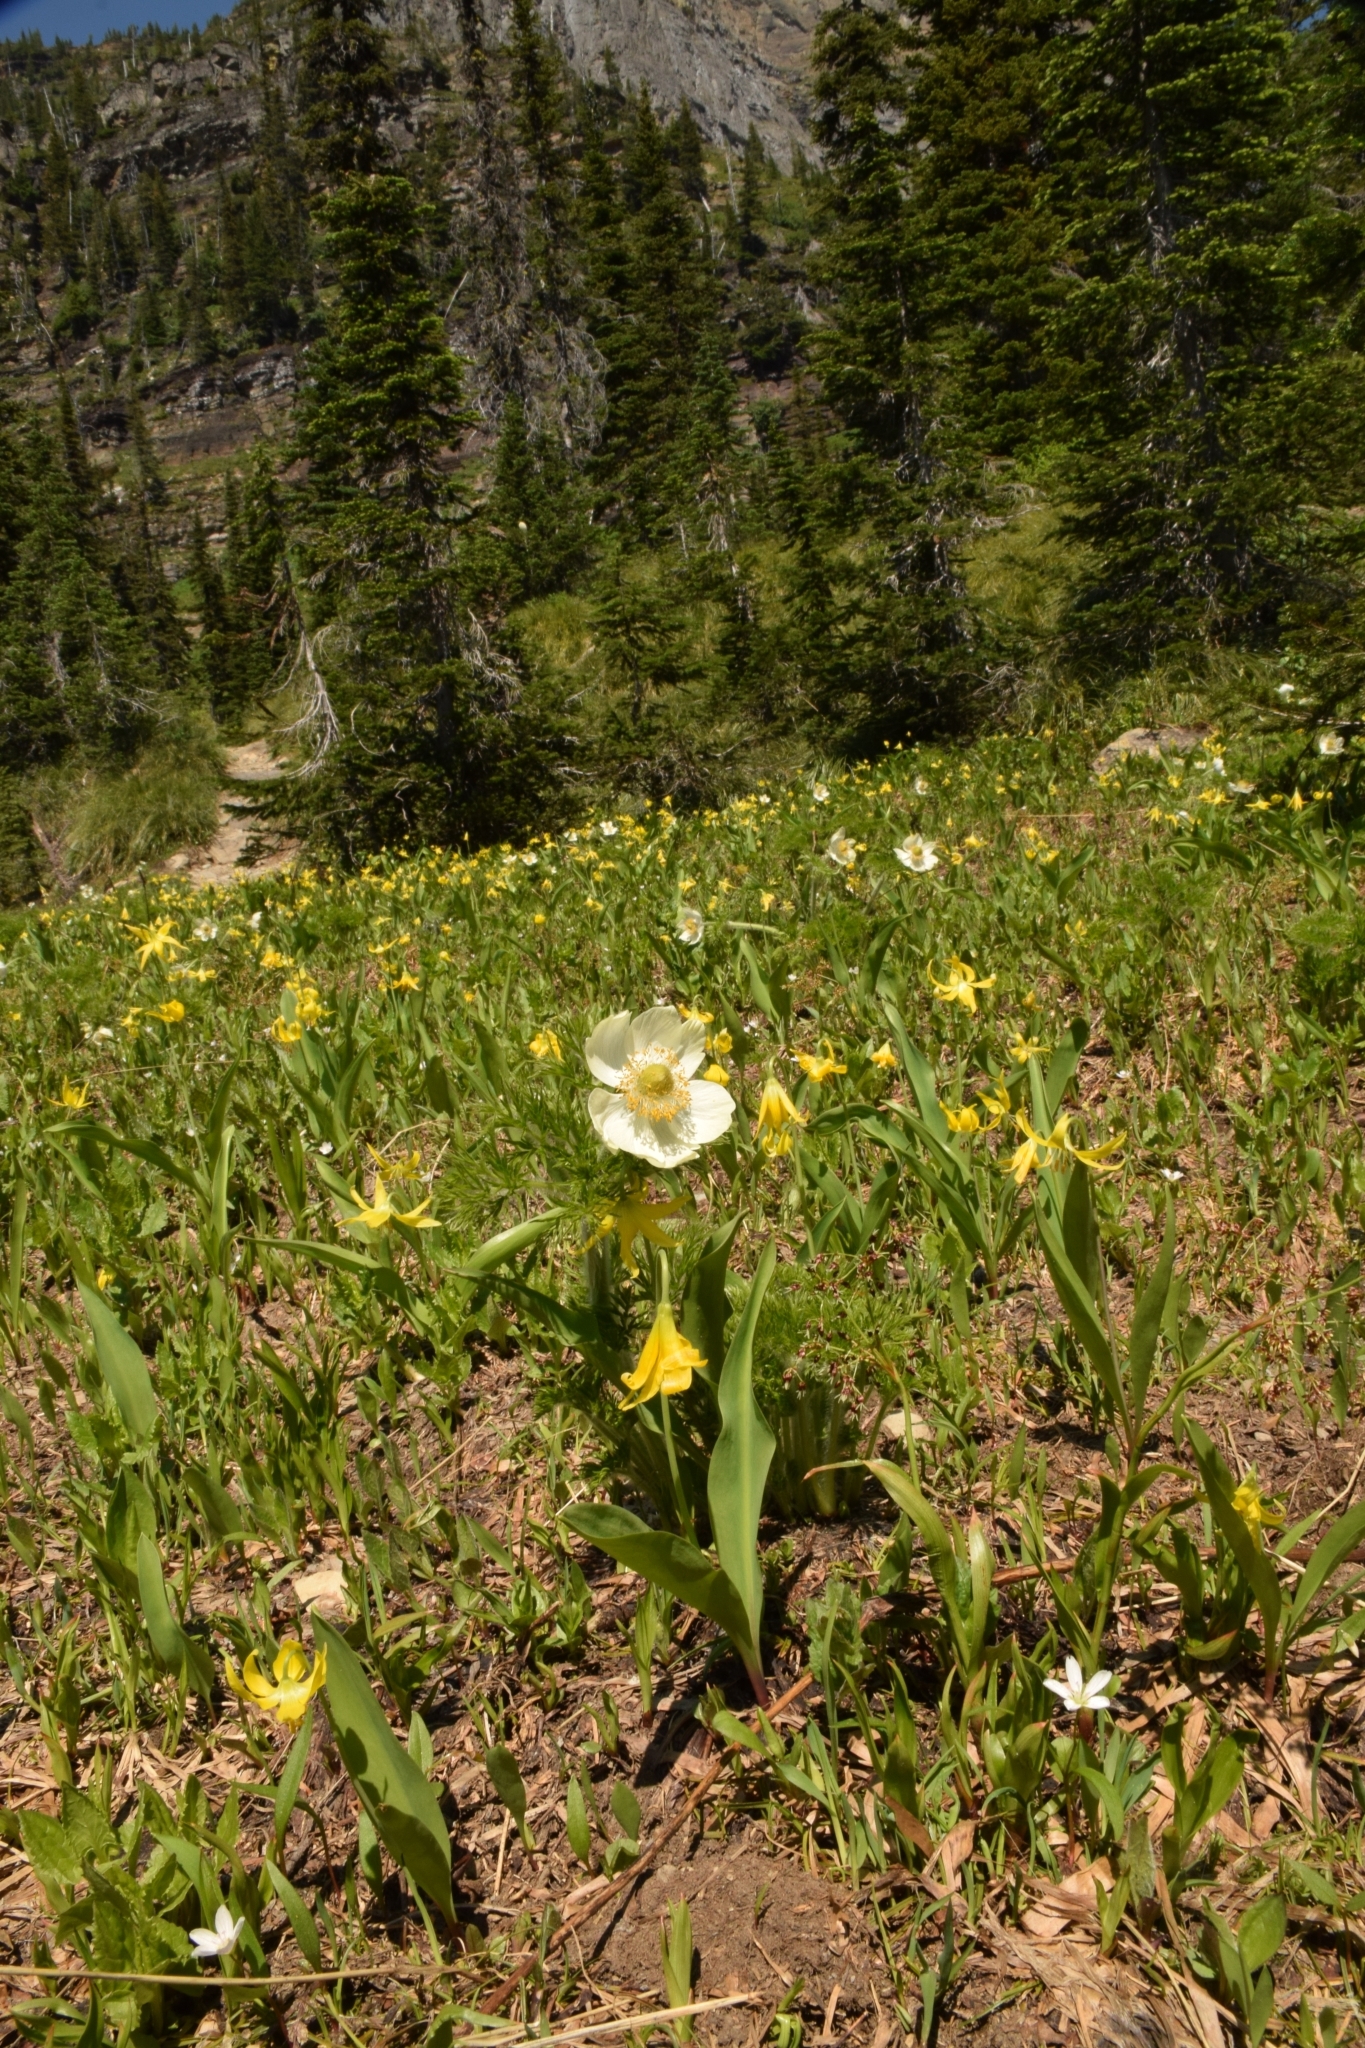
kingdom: Plantae
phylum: Tracheophyta
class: Magnoliopsida
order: Ranunculales
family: Ranunculaceae
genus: Pulsatilla
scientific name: Pulsatilla occidentalis
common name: Mountain pasqueflower
